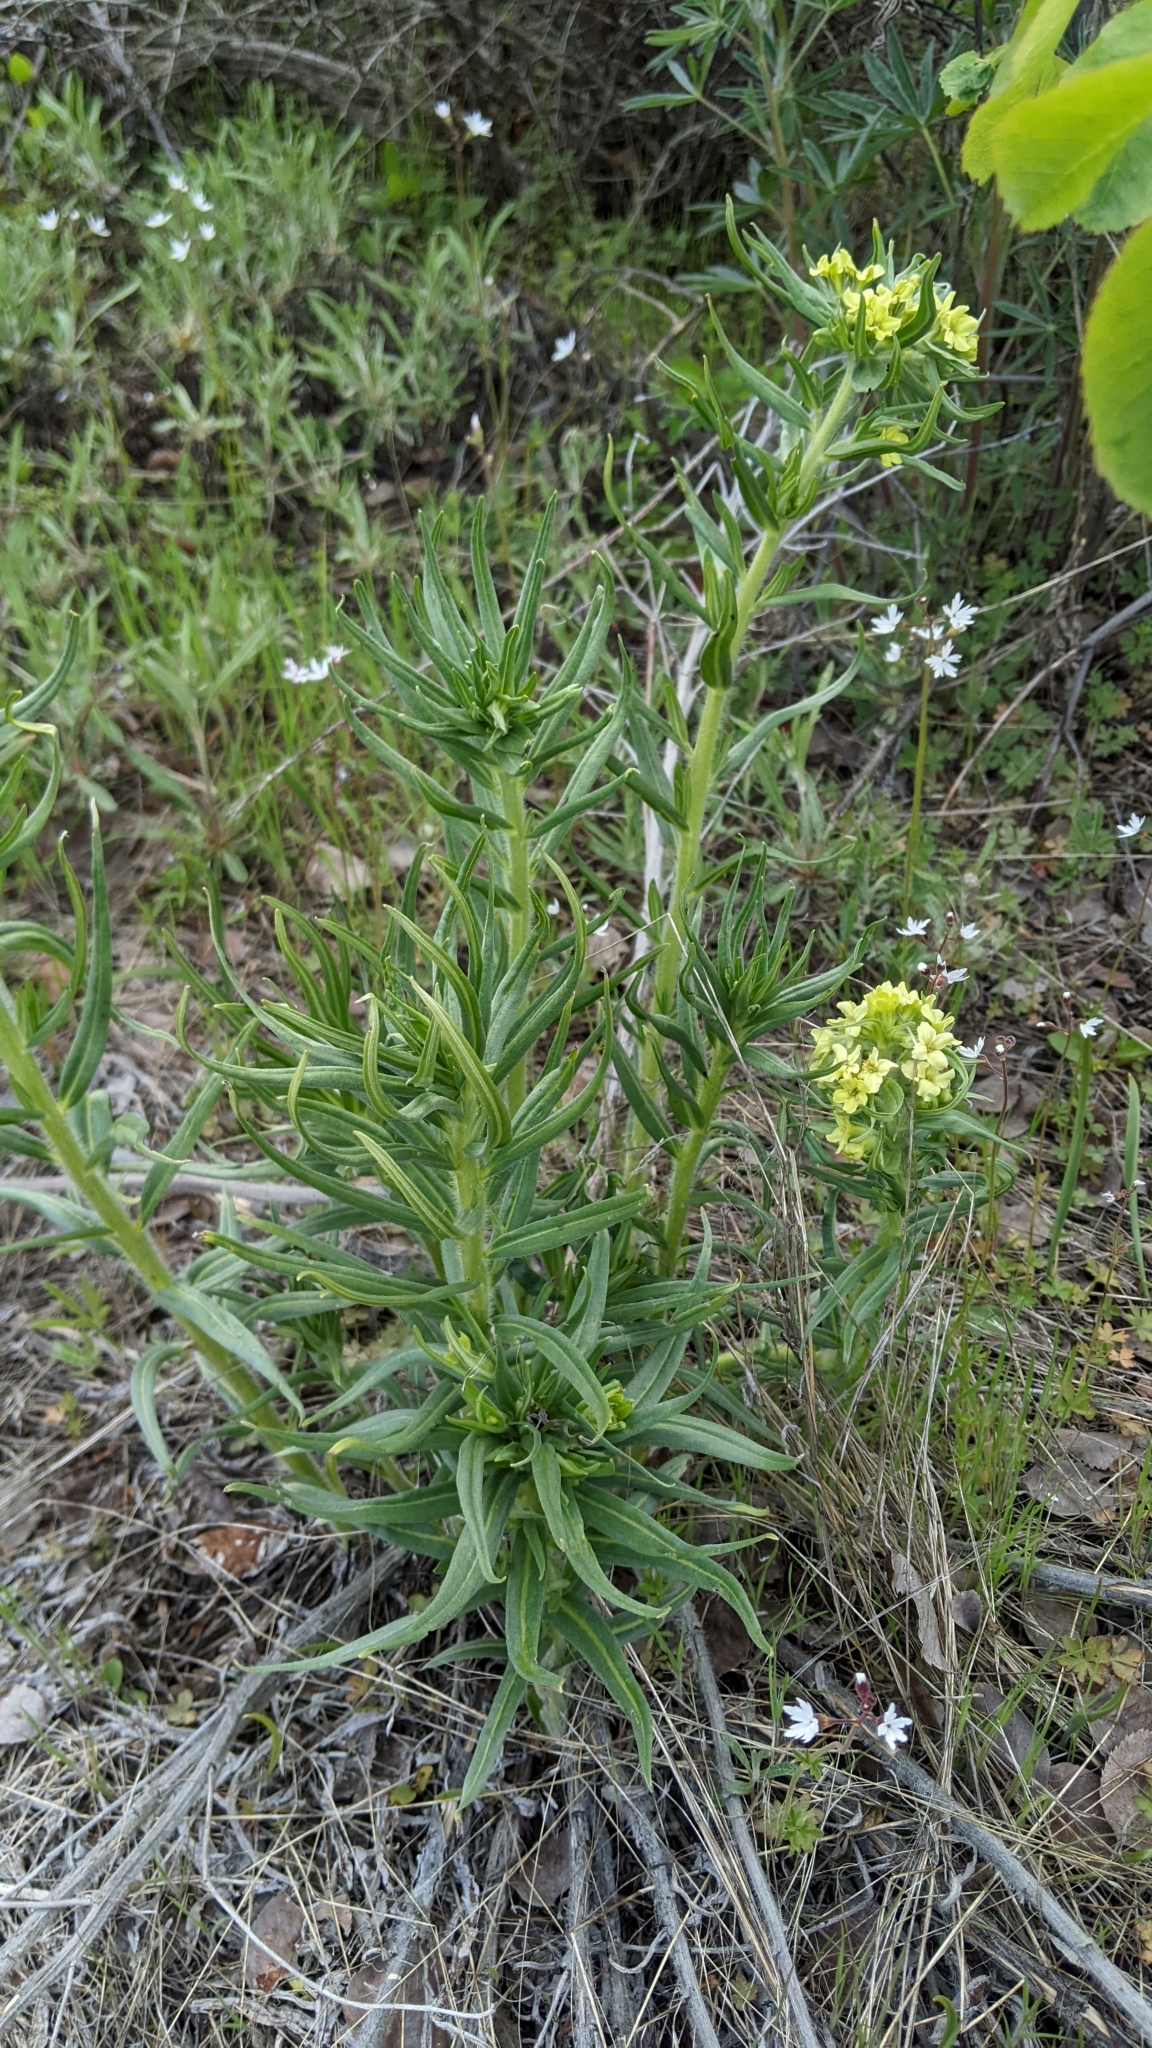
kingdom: Plantae
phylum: Tracheophyta
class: Magnoliopsida
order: Boraginales
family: Boraginaceae
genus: Lithospermum
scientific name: Lithospermum ruderale
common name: Western gromwell
